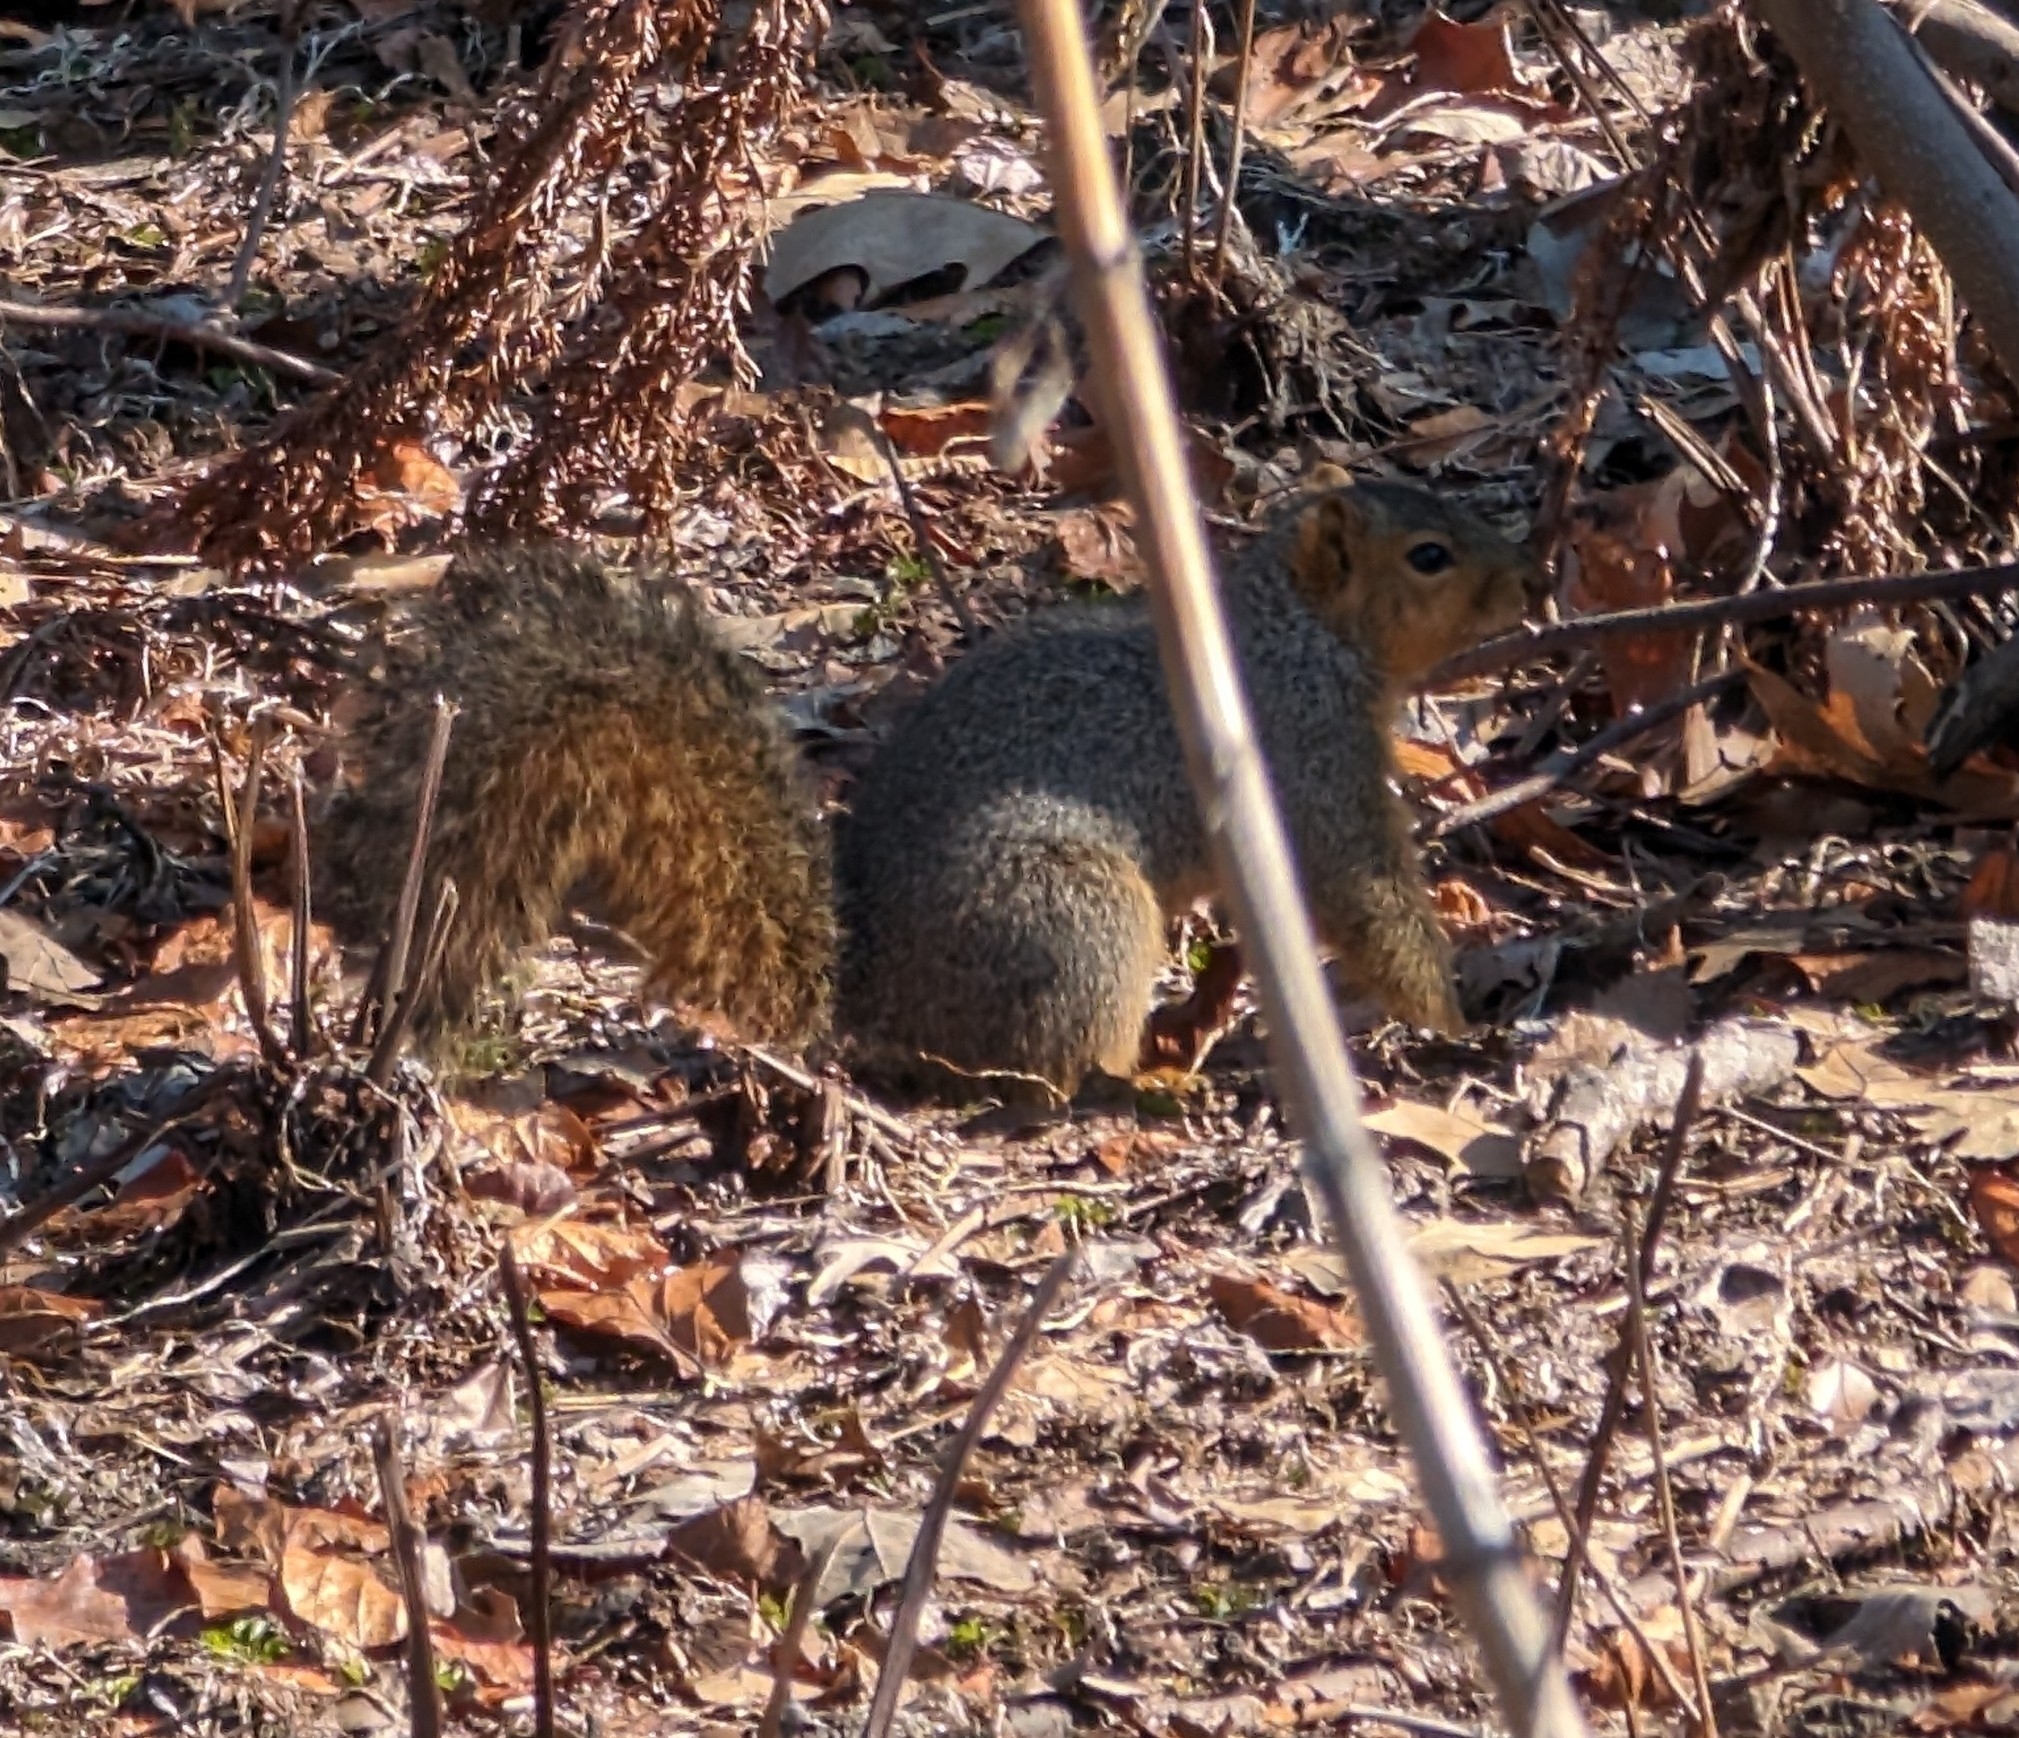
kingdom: Animalia
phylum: Chordata
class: Mammalia
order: Rodentia
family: Sciuridae
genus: Sciurus
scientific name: Sciurus niger
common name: Fox squirrel
